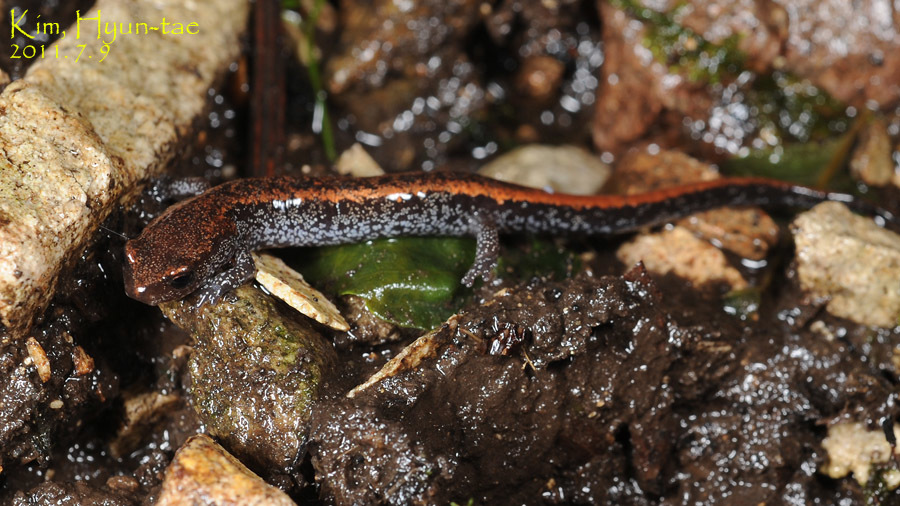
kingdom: Animalia
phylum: Chordata
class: Amphibia
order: Caudata
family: Plethodontidae
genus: Karsenia
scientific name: Karsenia koreana
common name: Korean crevice salamander
